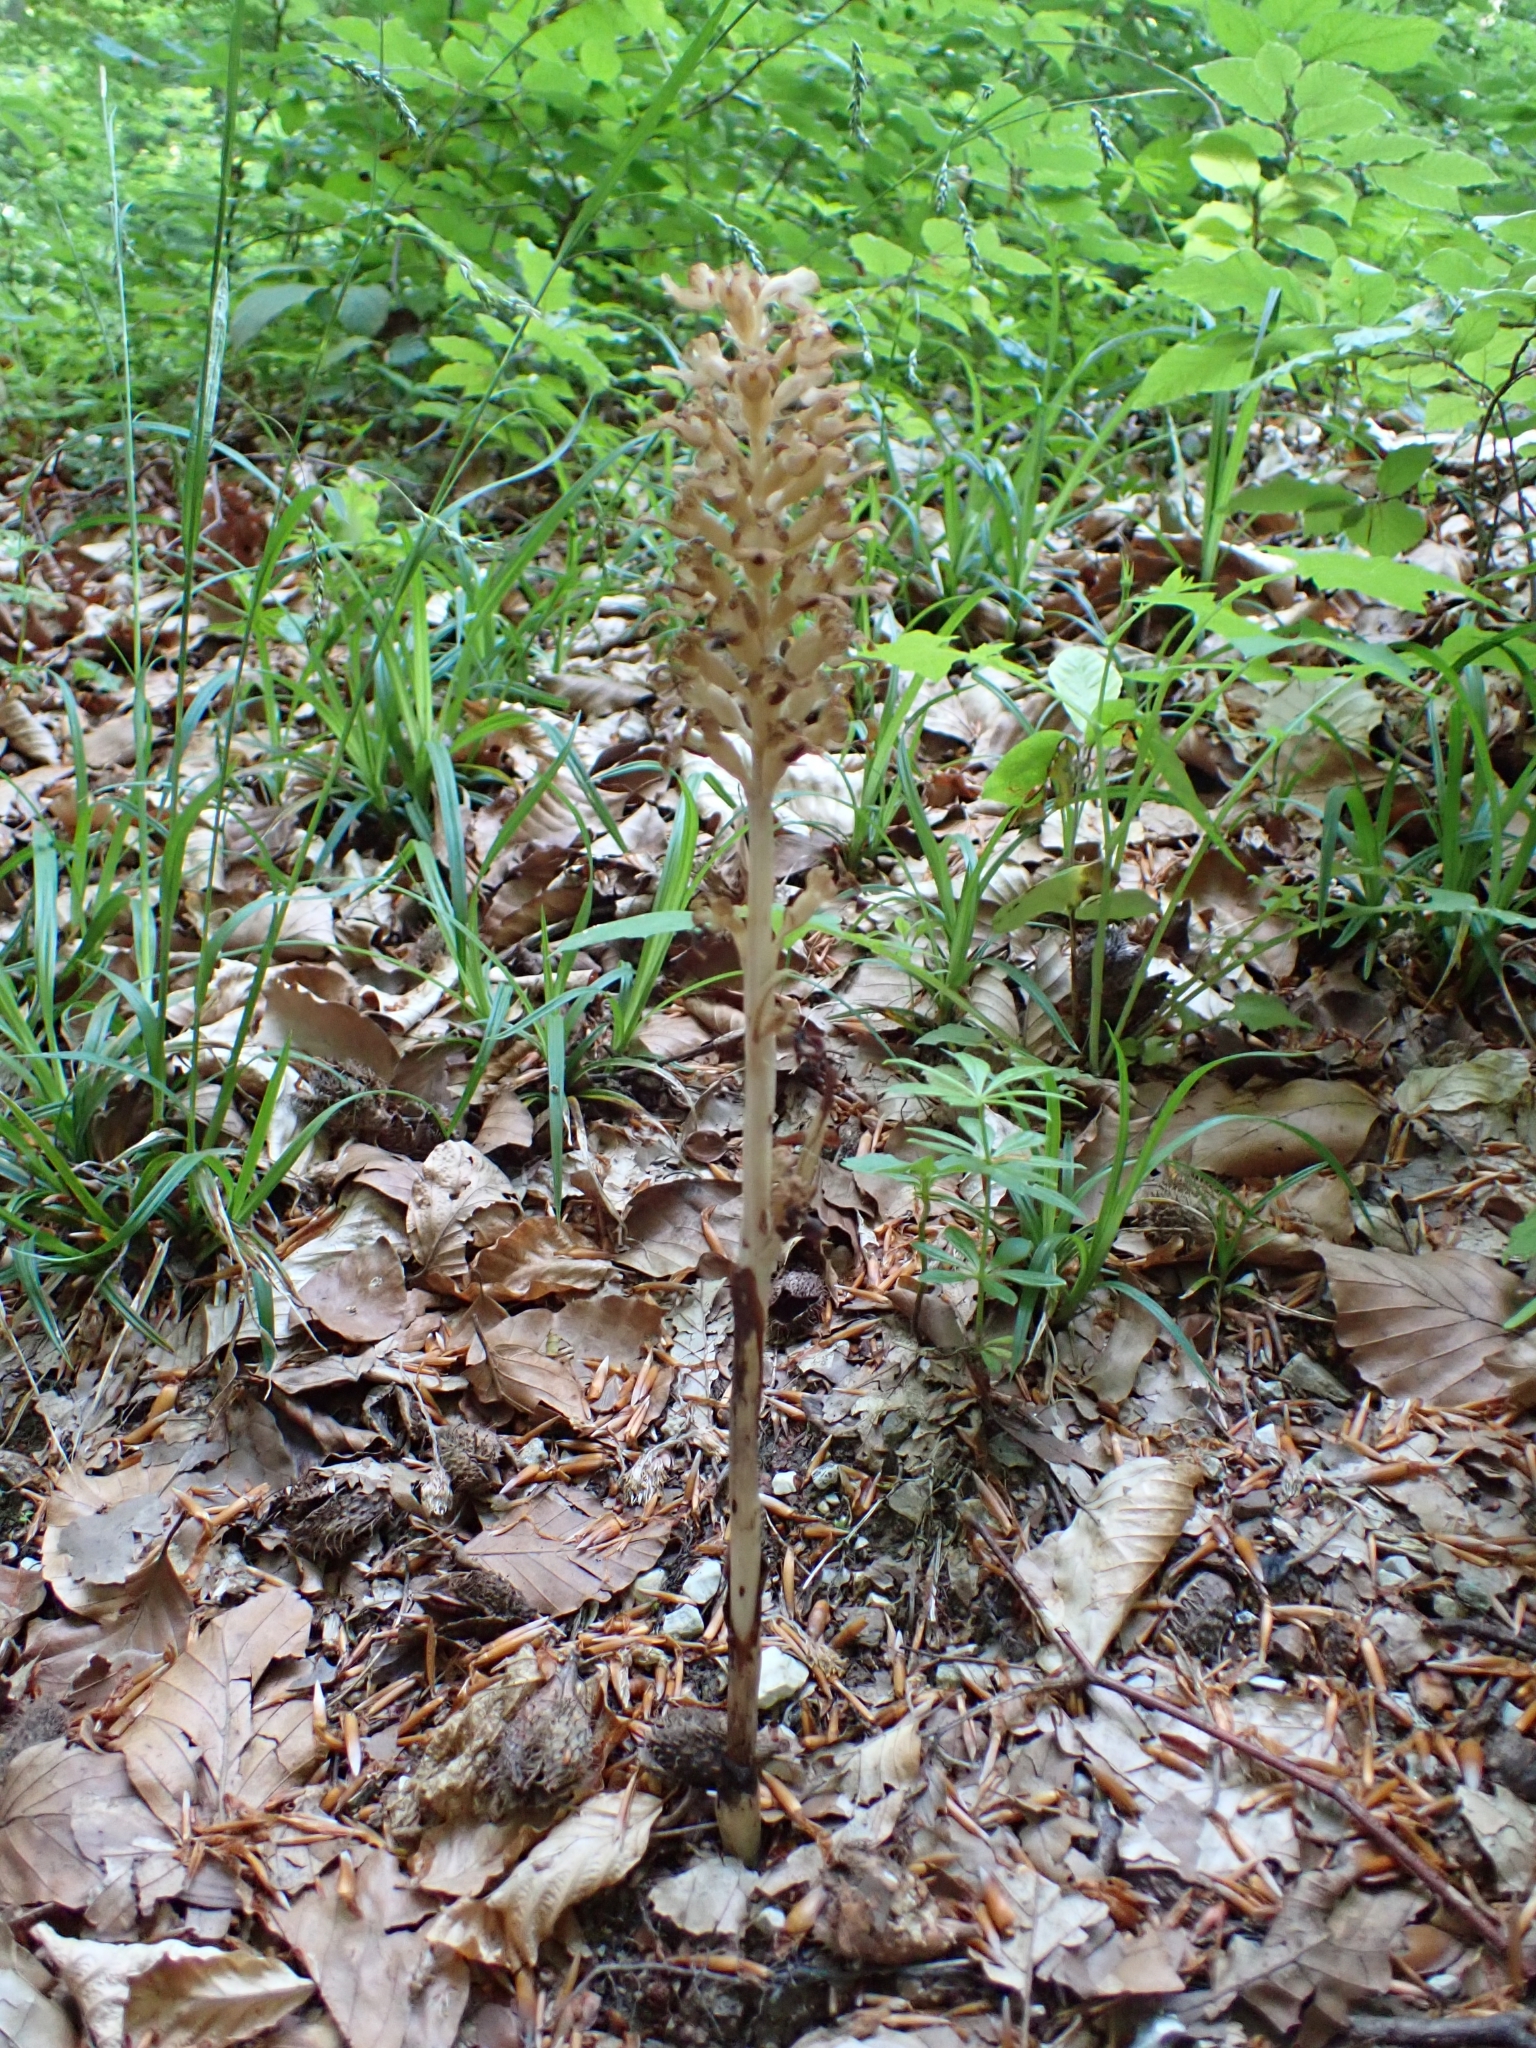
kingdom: Plantae
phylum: Tracheophyta
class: Liliopsida
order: Asparagales
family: Orchidaceae
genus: Neottia
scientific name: Neottia nidus-avis
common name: Bird's-nest orchid
